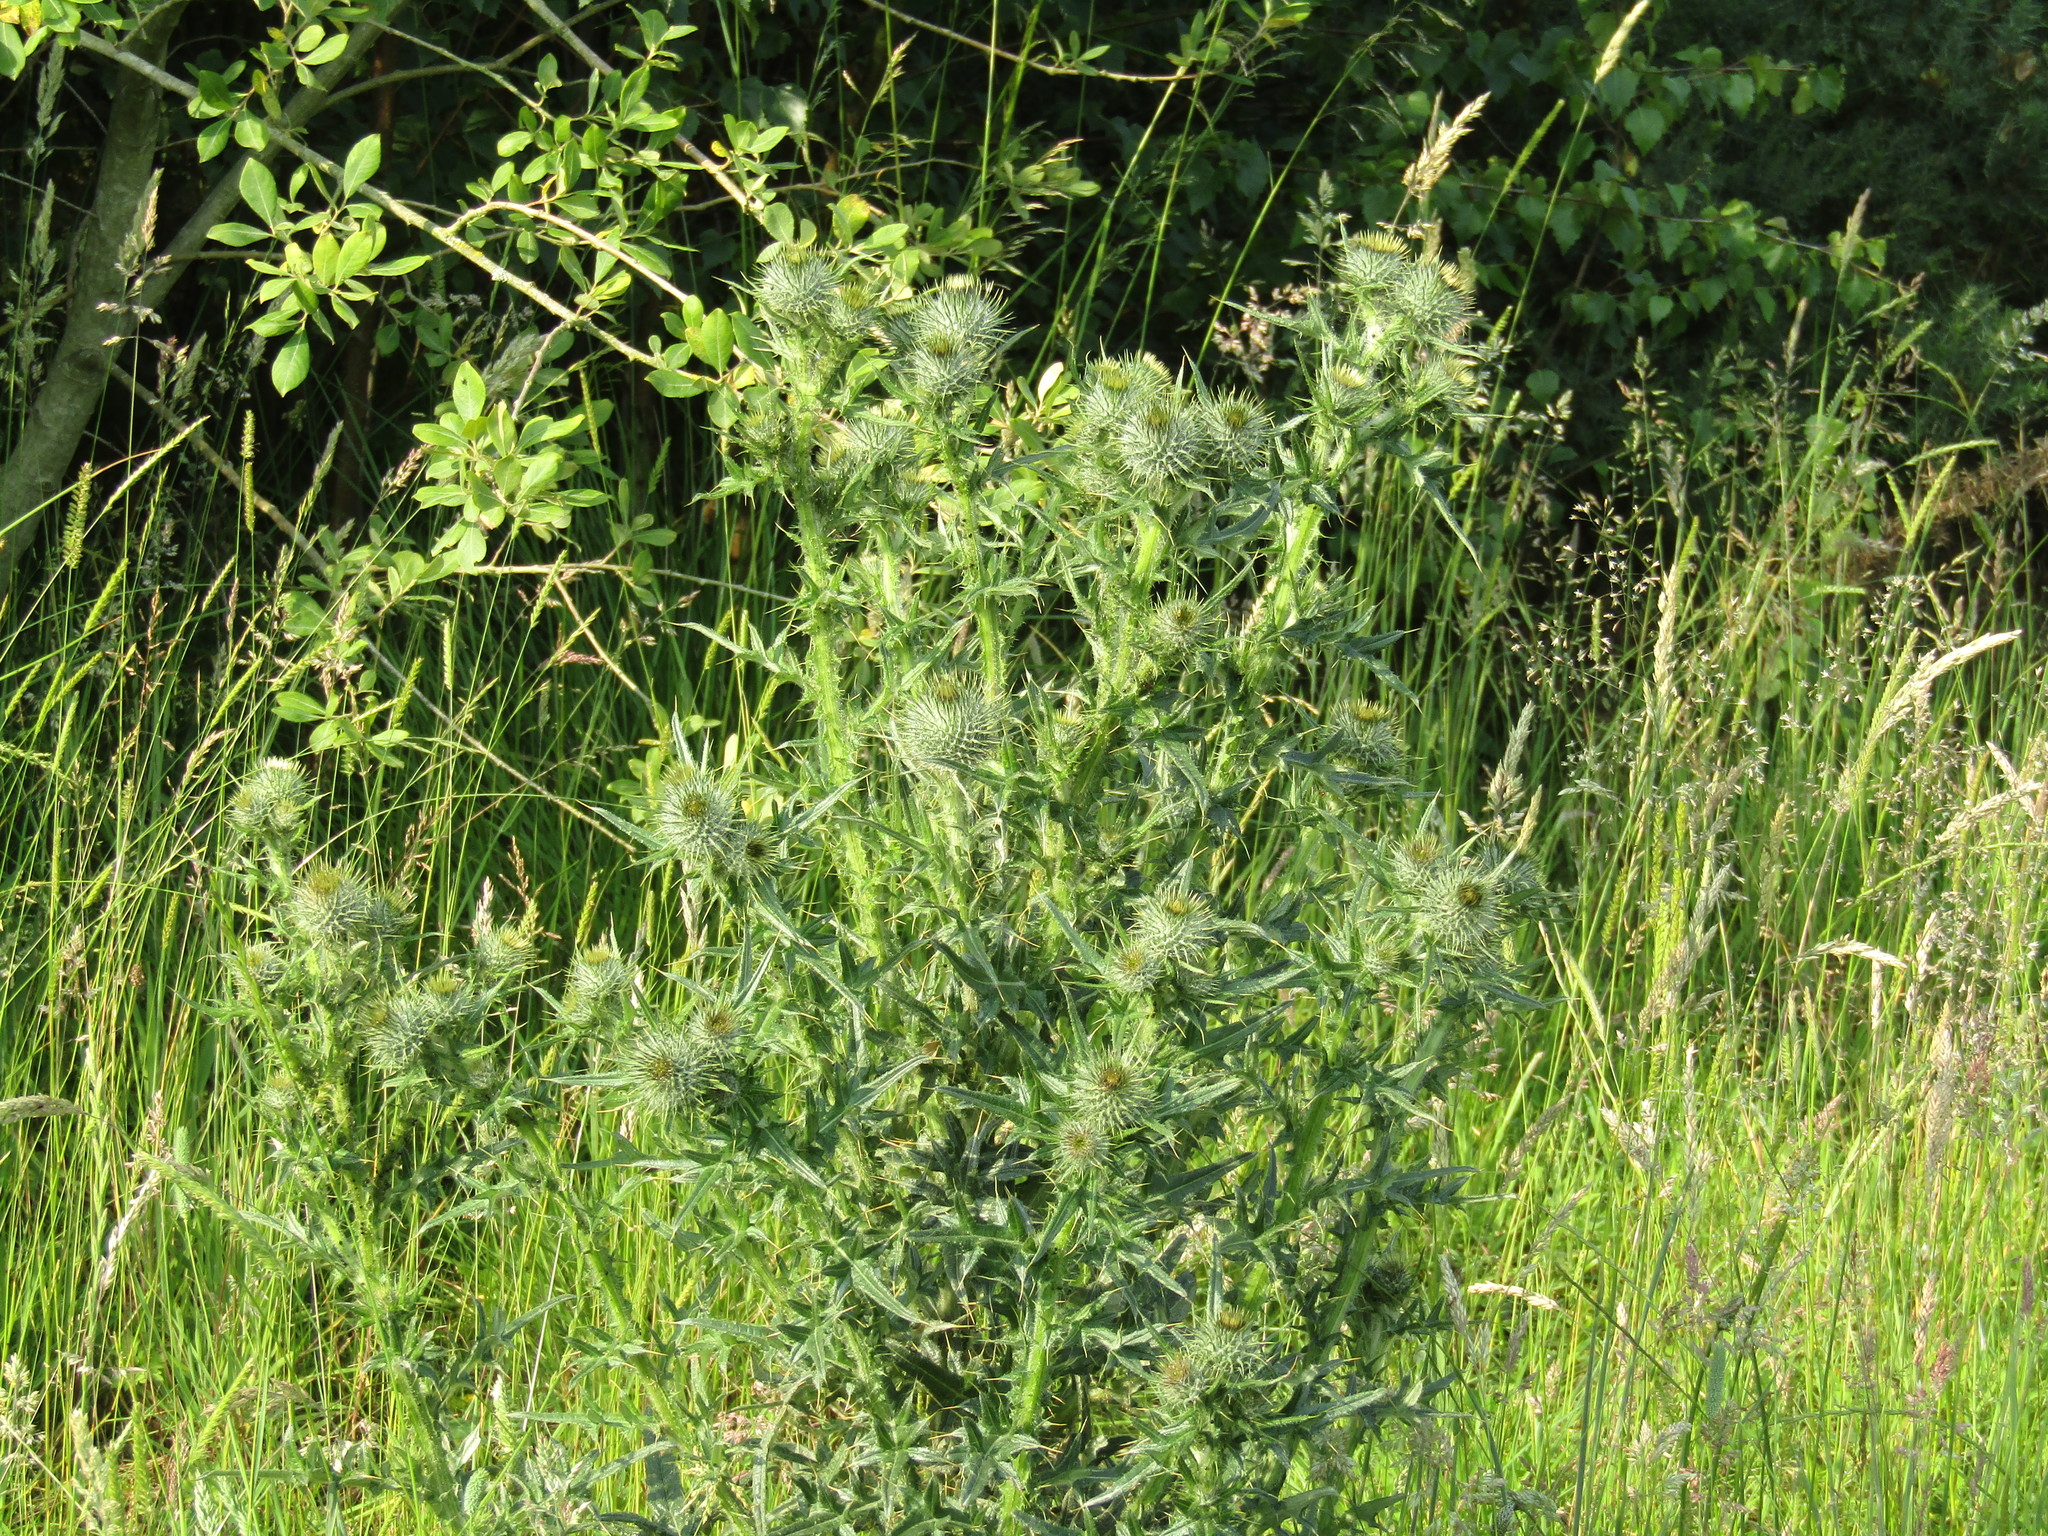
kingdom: Plantae
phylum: Tracheophyta
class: Magnoliopsida
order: Asterales
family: Asteraceae
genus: Cirsium
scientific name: Cirsium vulgare
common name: Bull thistle
